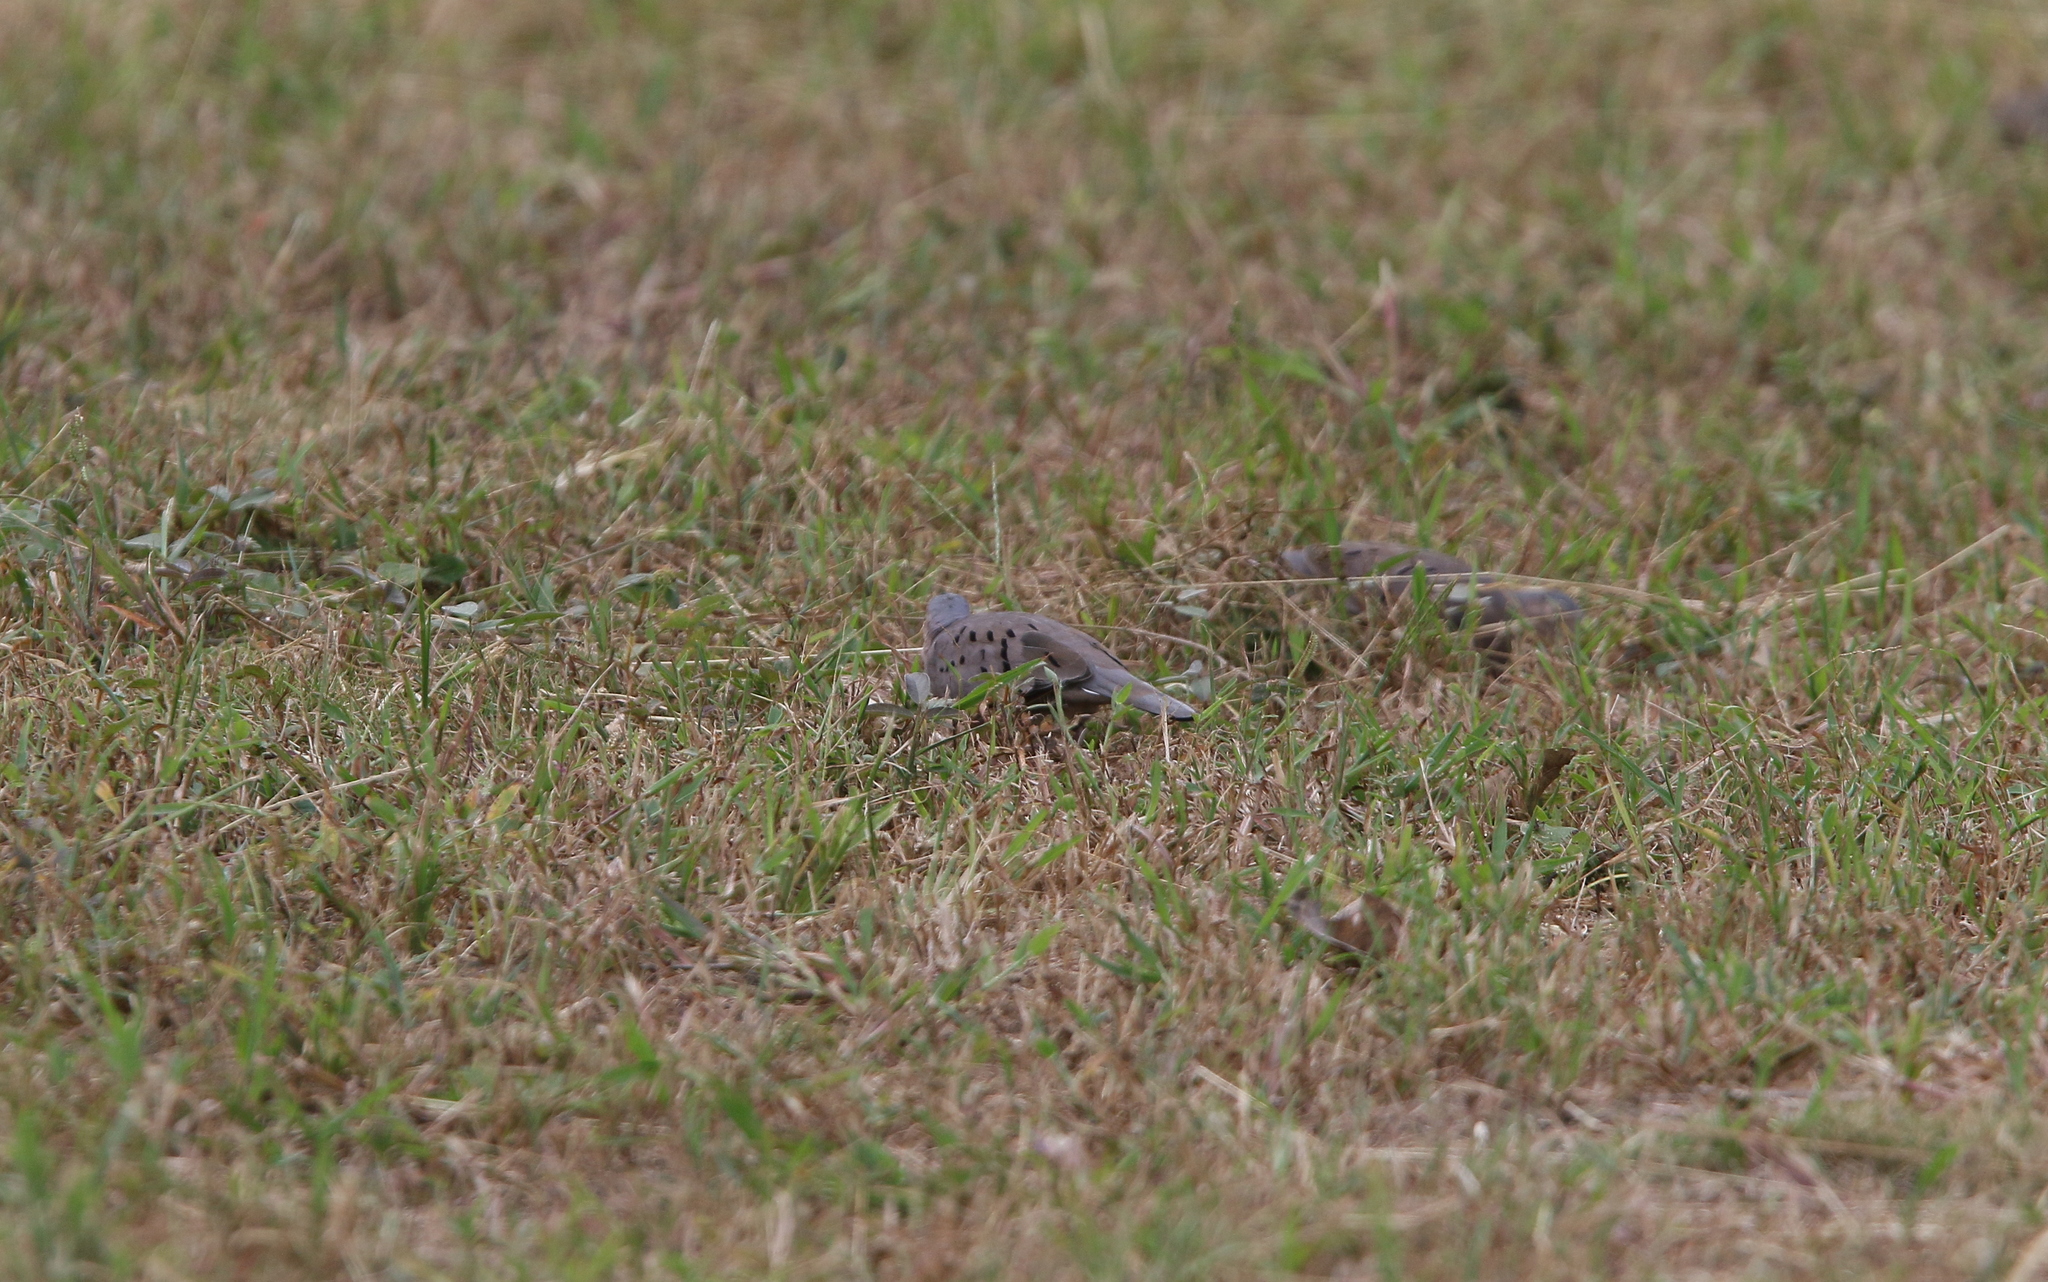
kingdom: Animalia
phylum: Chordata
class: Aves
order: Columbiformes
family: Columbidae
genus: Columbina
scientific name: Columbina buckleyi
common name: Ecuadorian ground dove
